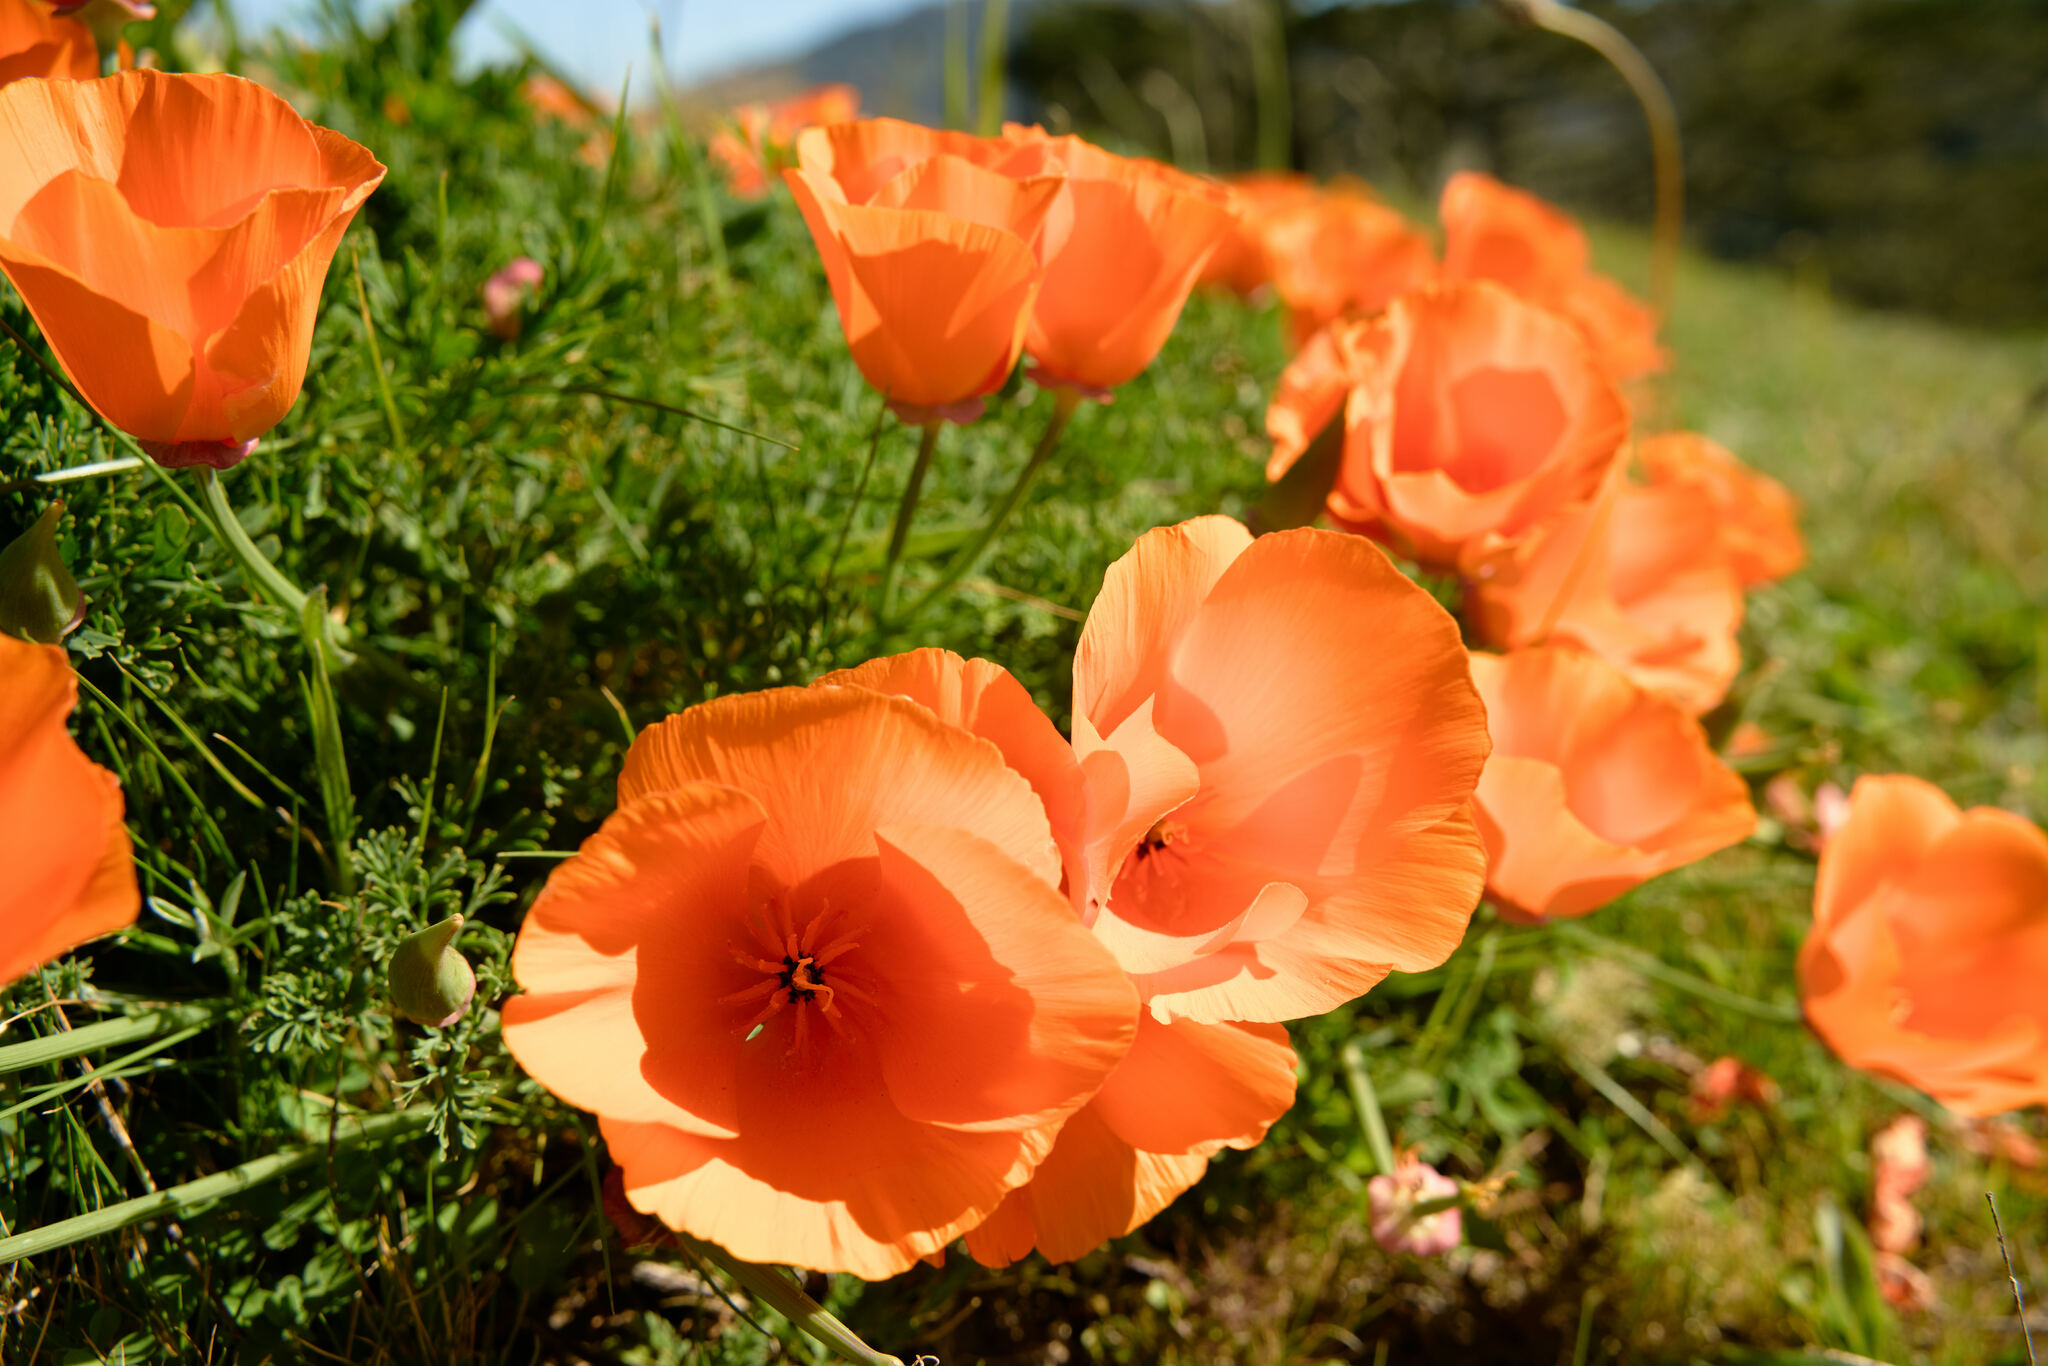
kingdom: Plantae
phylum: Tracheophyta
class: Magnoliopsida
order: Ranunculales
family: Papaveraceae
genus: Eschscholzia
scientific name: Eschscholzia californica
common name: California poppy
